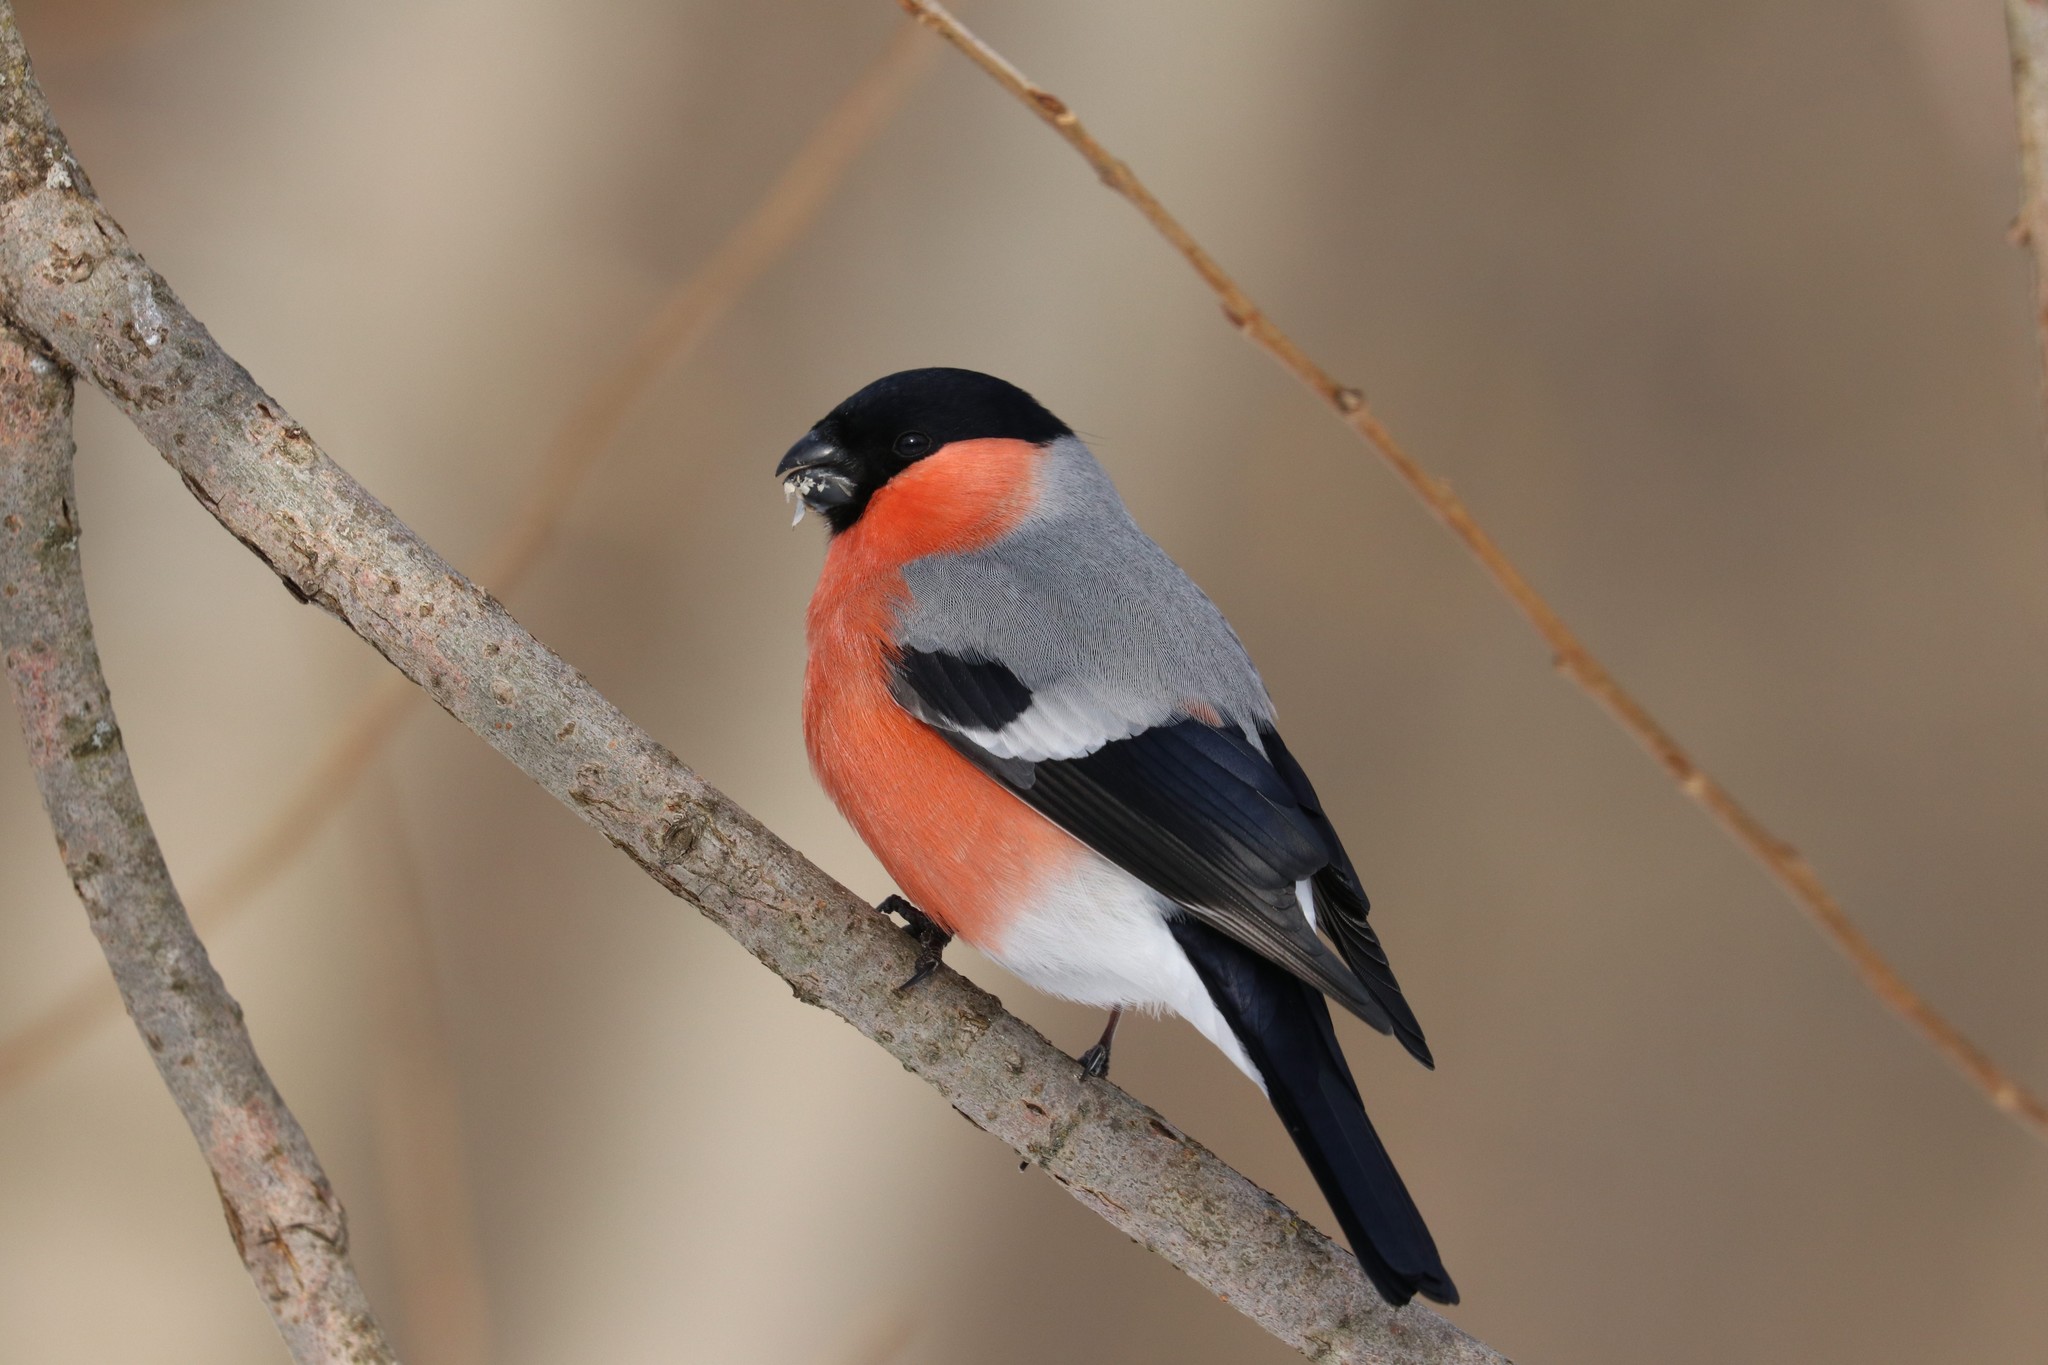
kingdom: Animalia
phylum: Chordata
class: Aves
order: Passeriformes
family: Fringillidae
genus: Pyrrhula
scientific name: Pyrrhula pyrrhula
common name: Eurasian bullfinch
